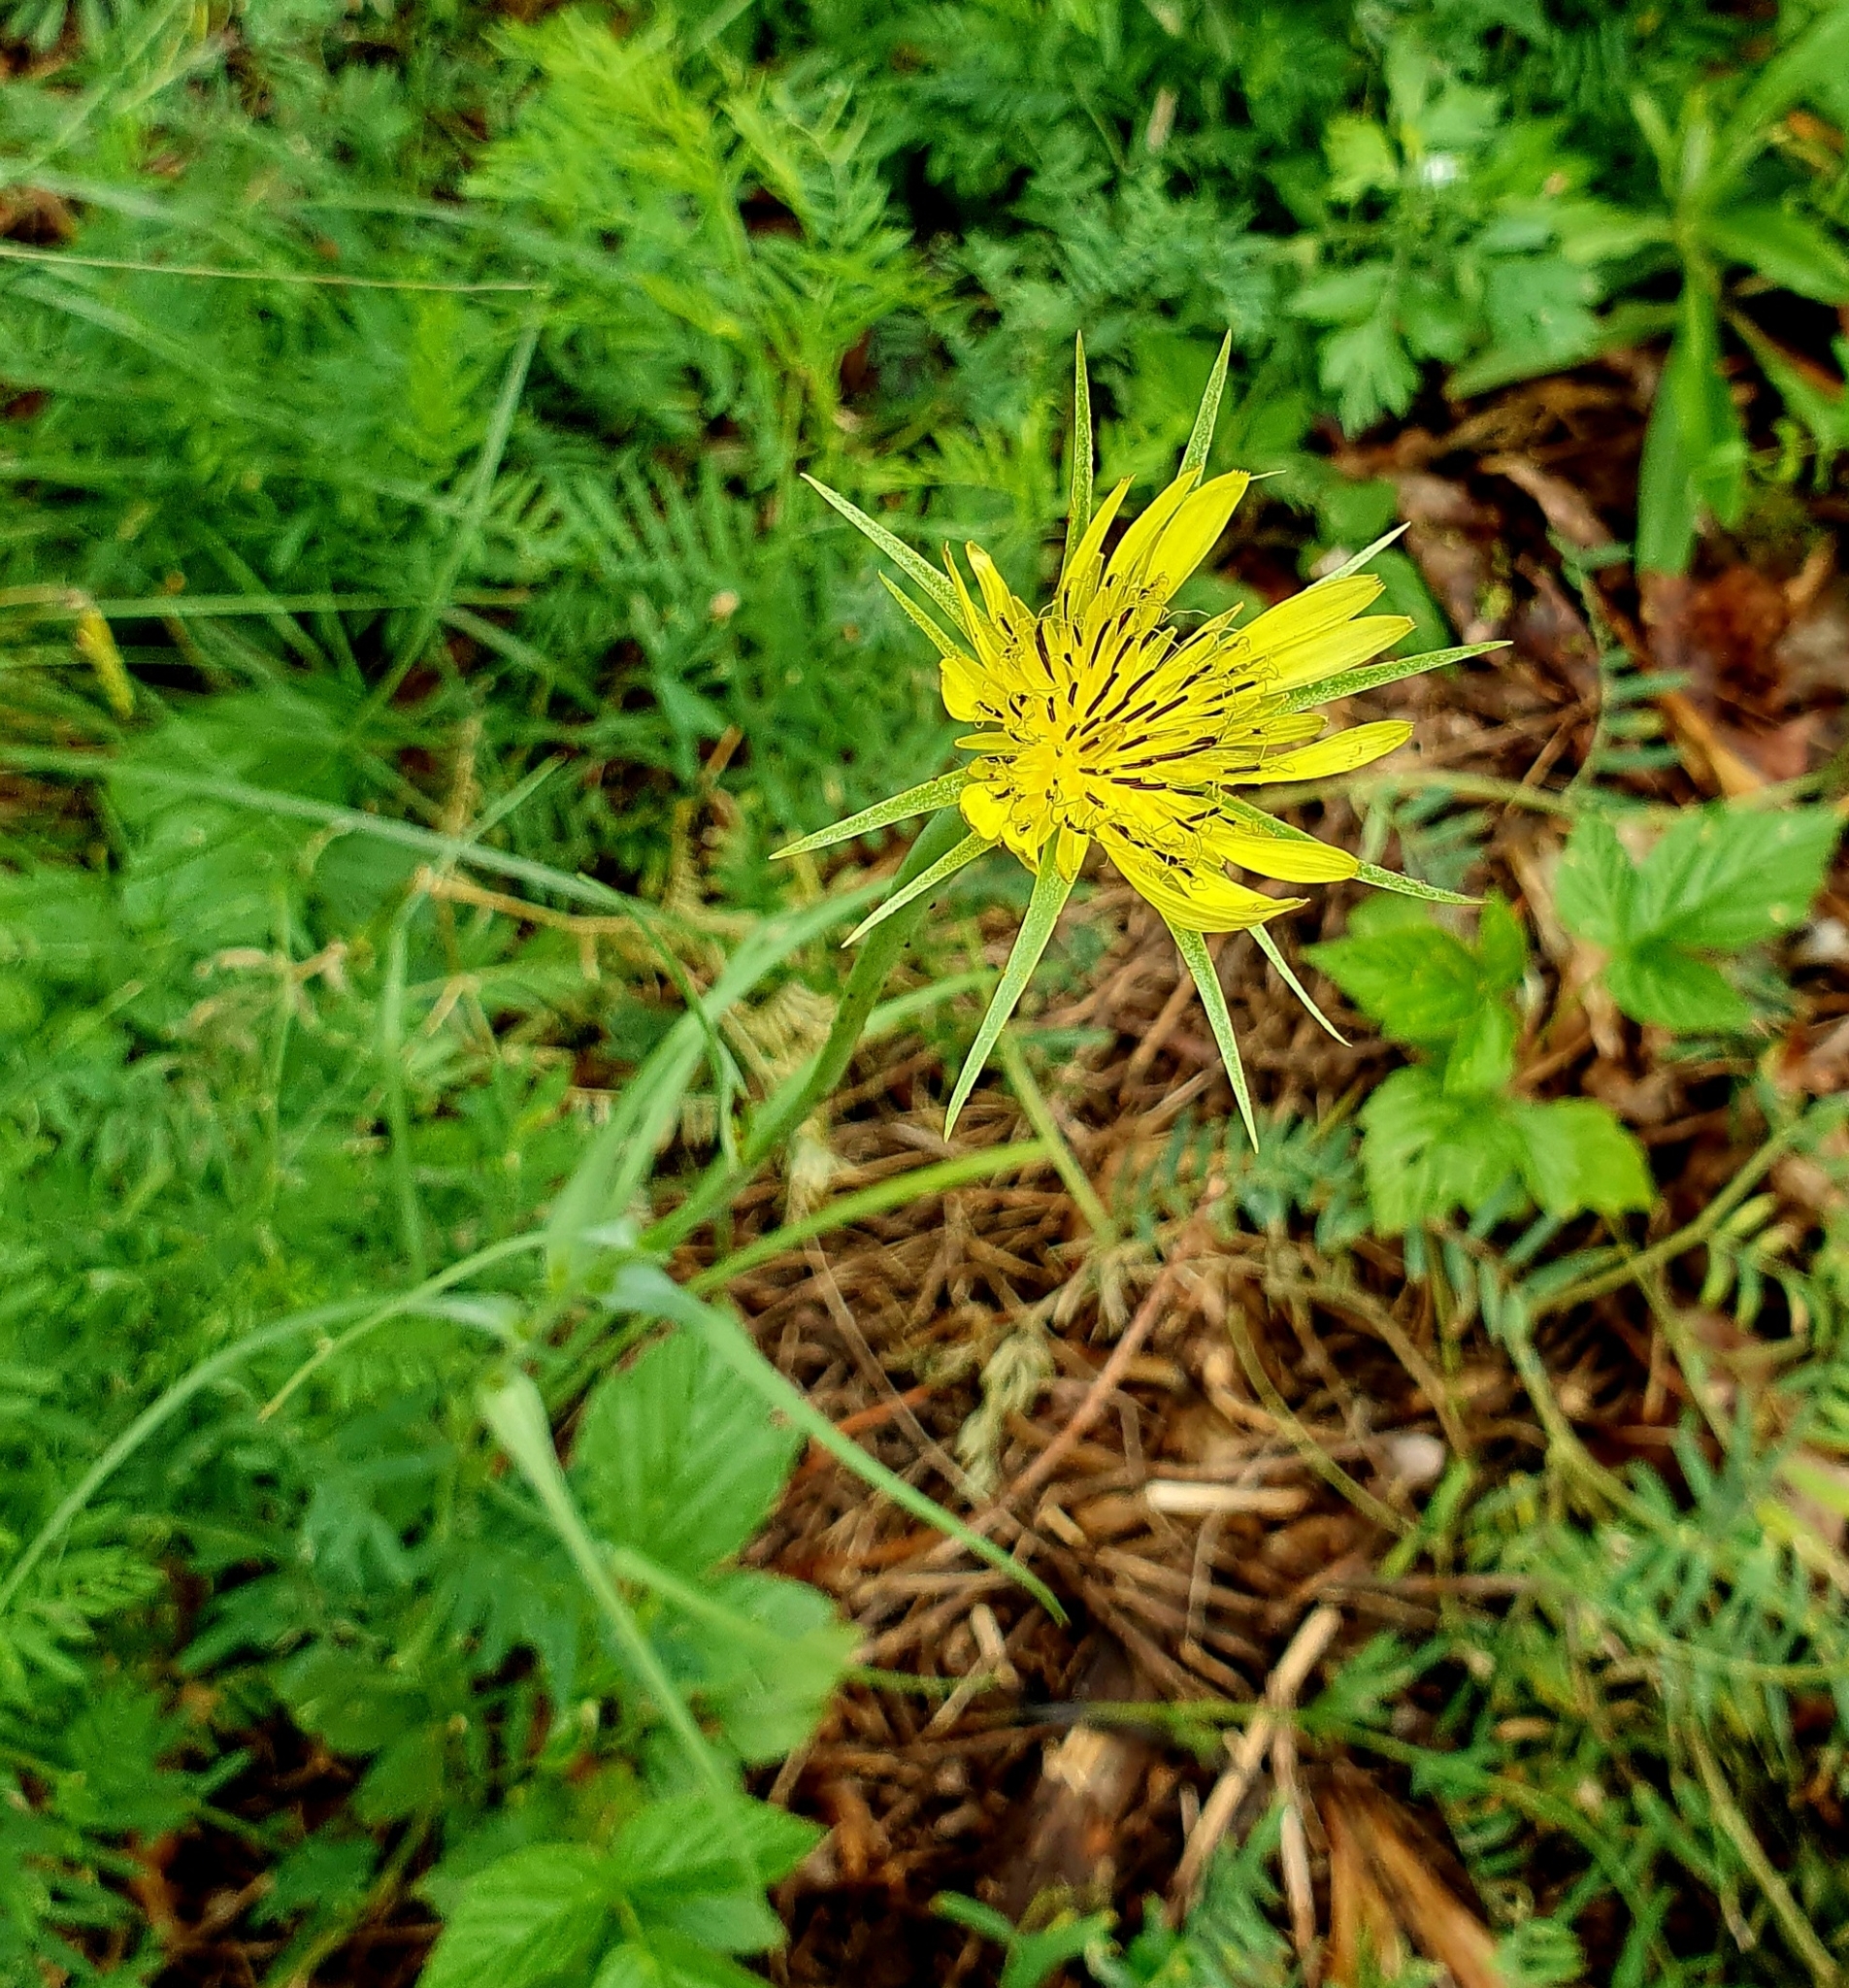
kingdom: Plantae
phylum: Tracheophyta
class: Magnoliopsida
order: Asterales
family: Asteraceae
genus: Tragopogon
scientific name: Tragopogon dubius
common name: Yellow salsify
